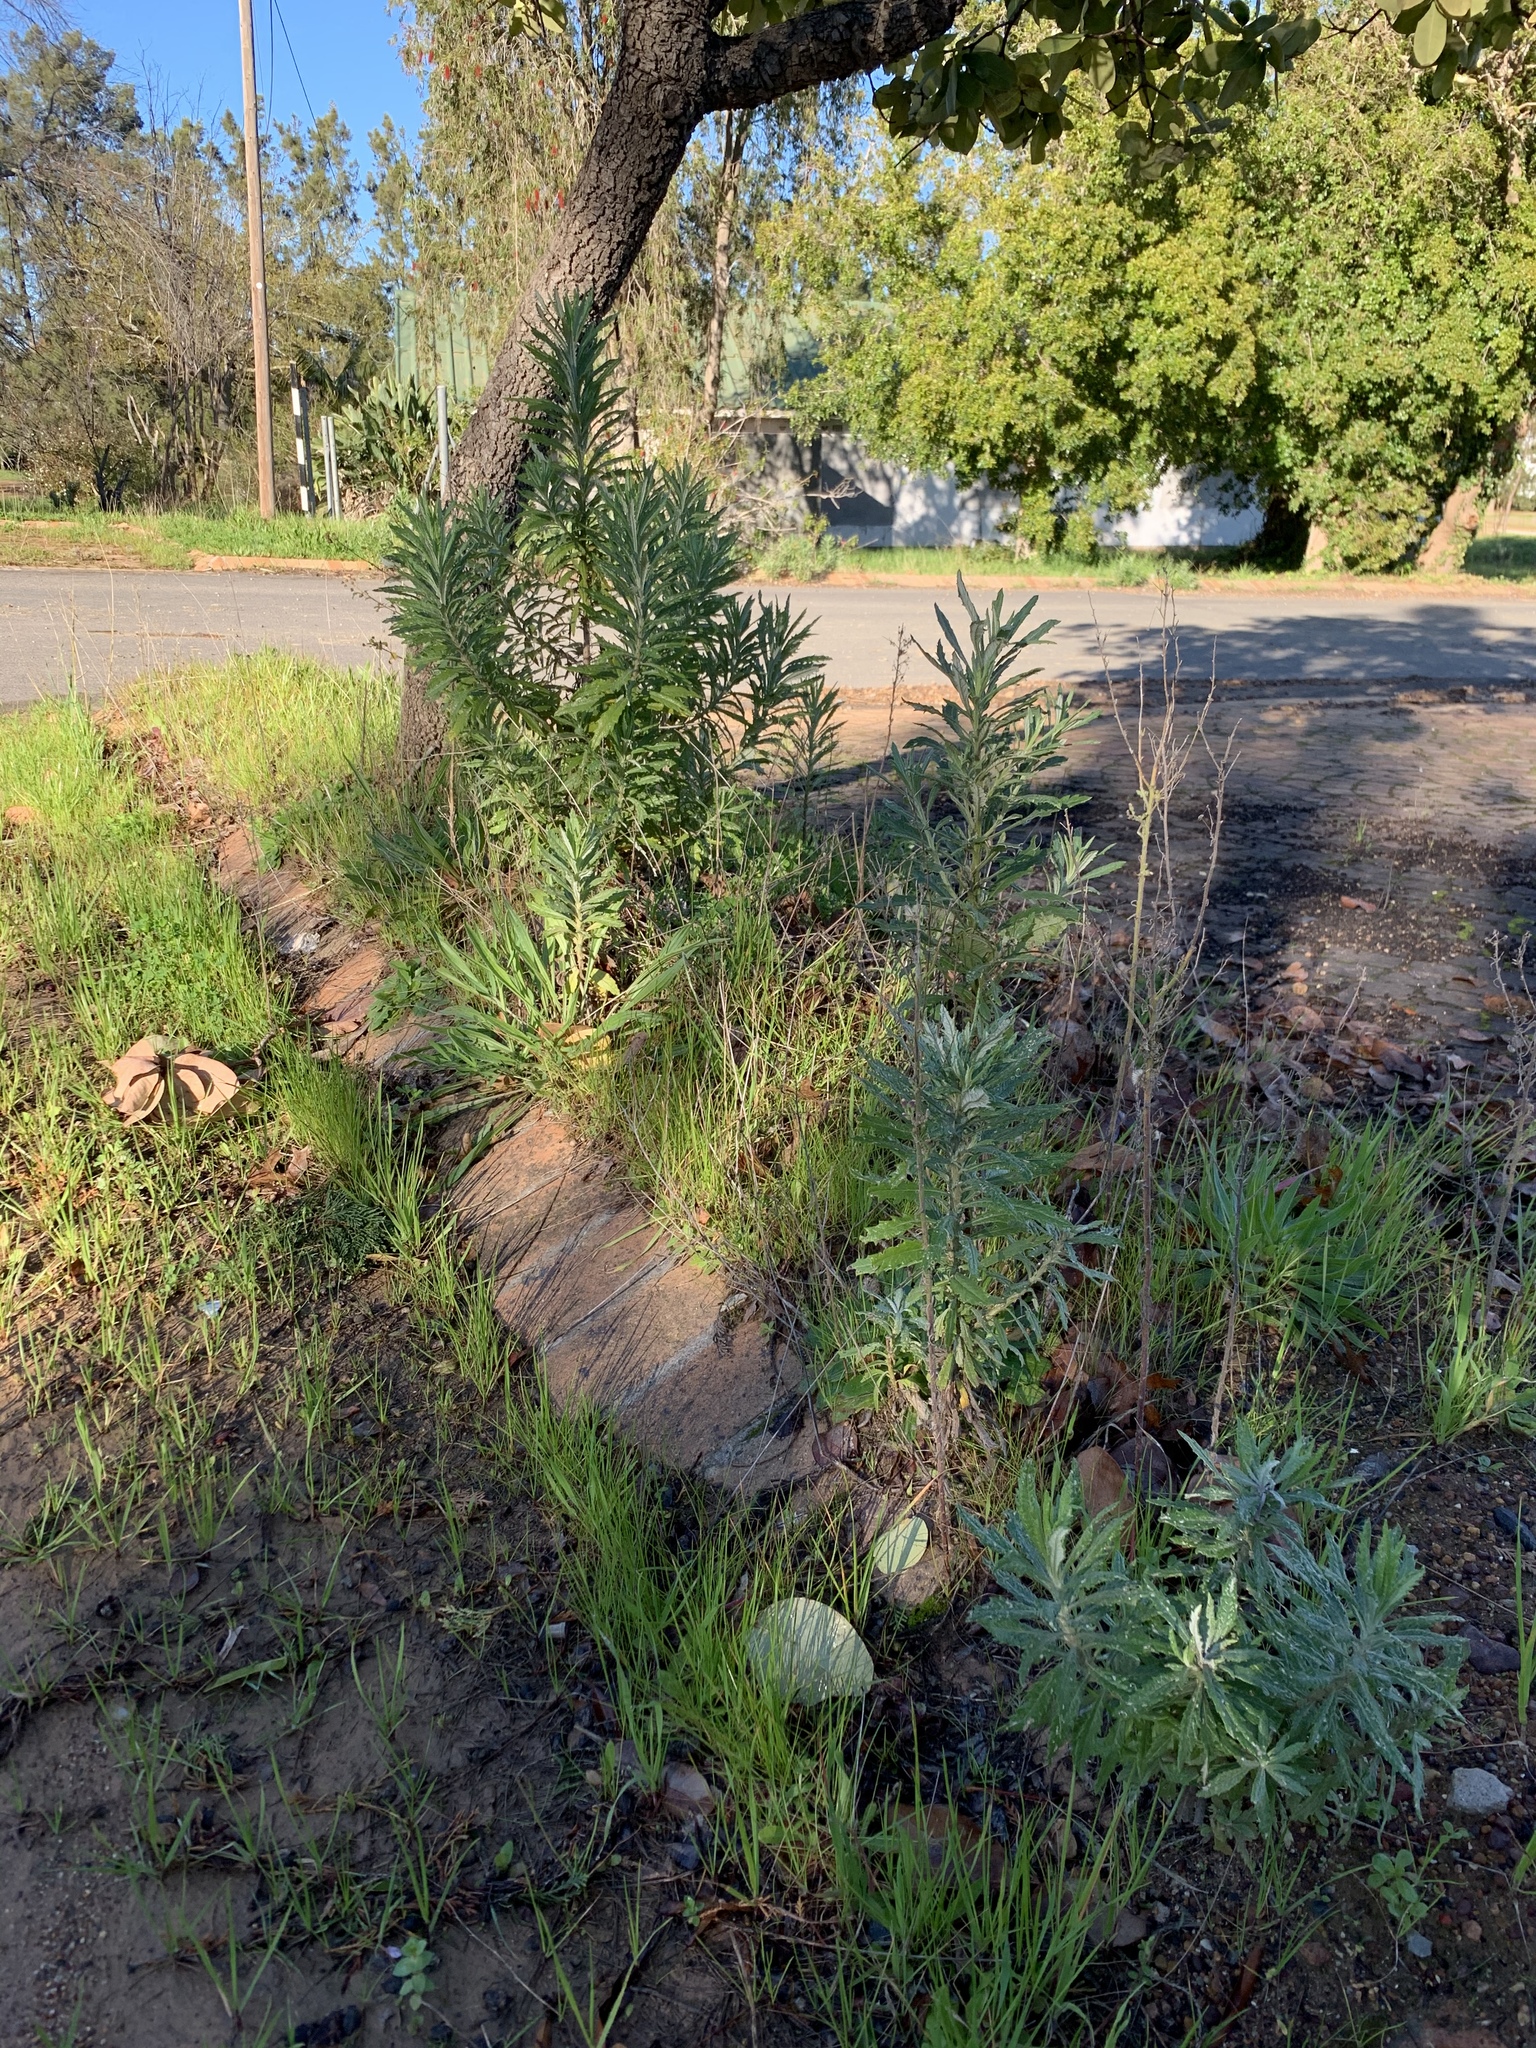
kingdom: Plantae
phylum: Tracheophyta
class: Magnoliopsida
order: Asterales
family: Asteraceae
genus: Senecio
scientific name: Senecio pterophorus
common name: Shoddy ragwort
